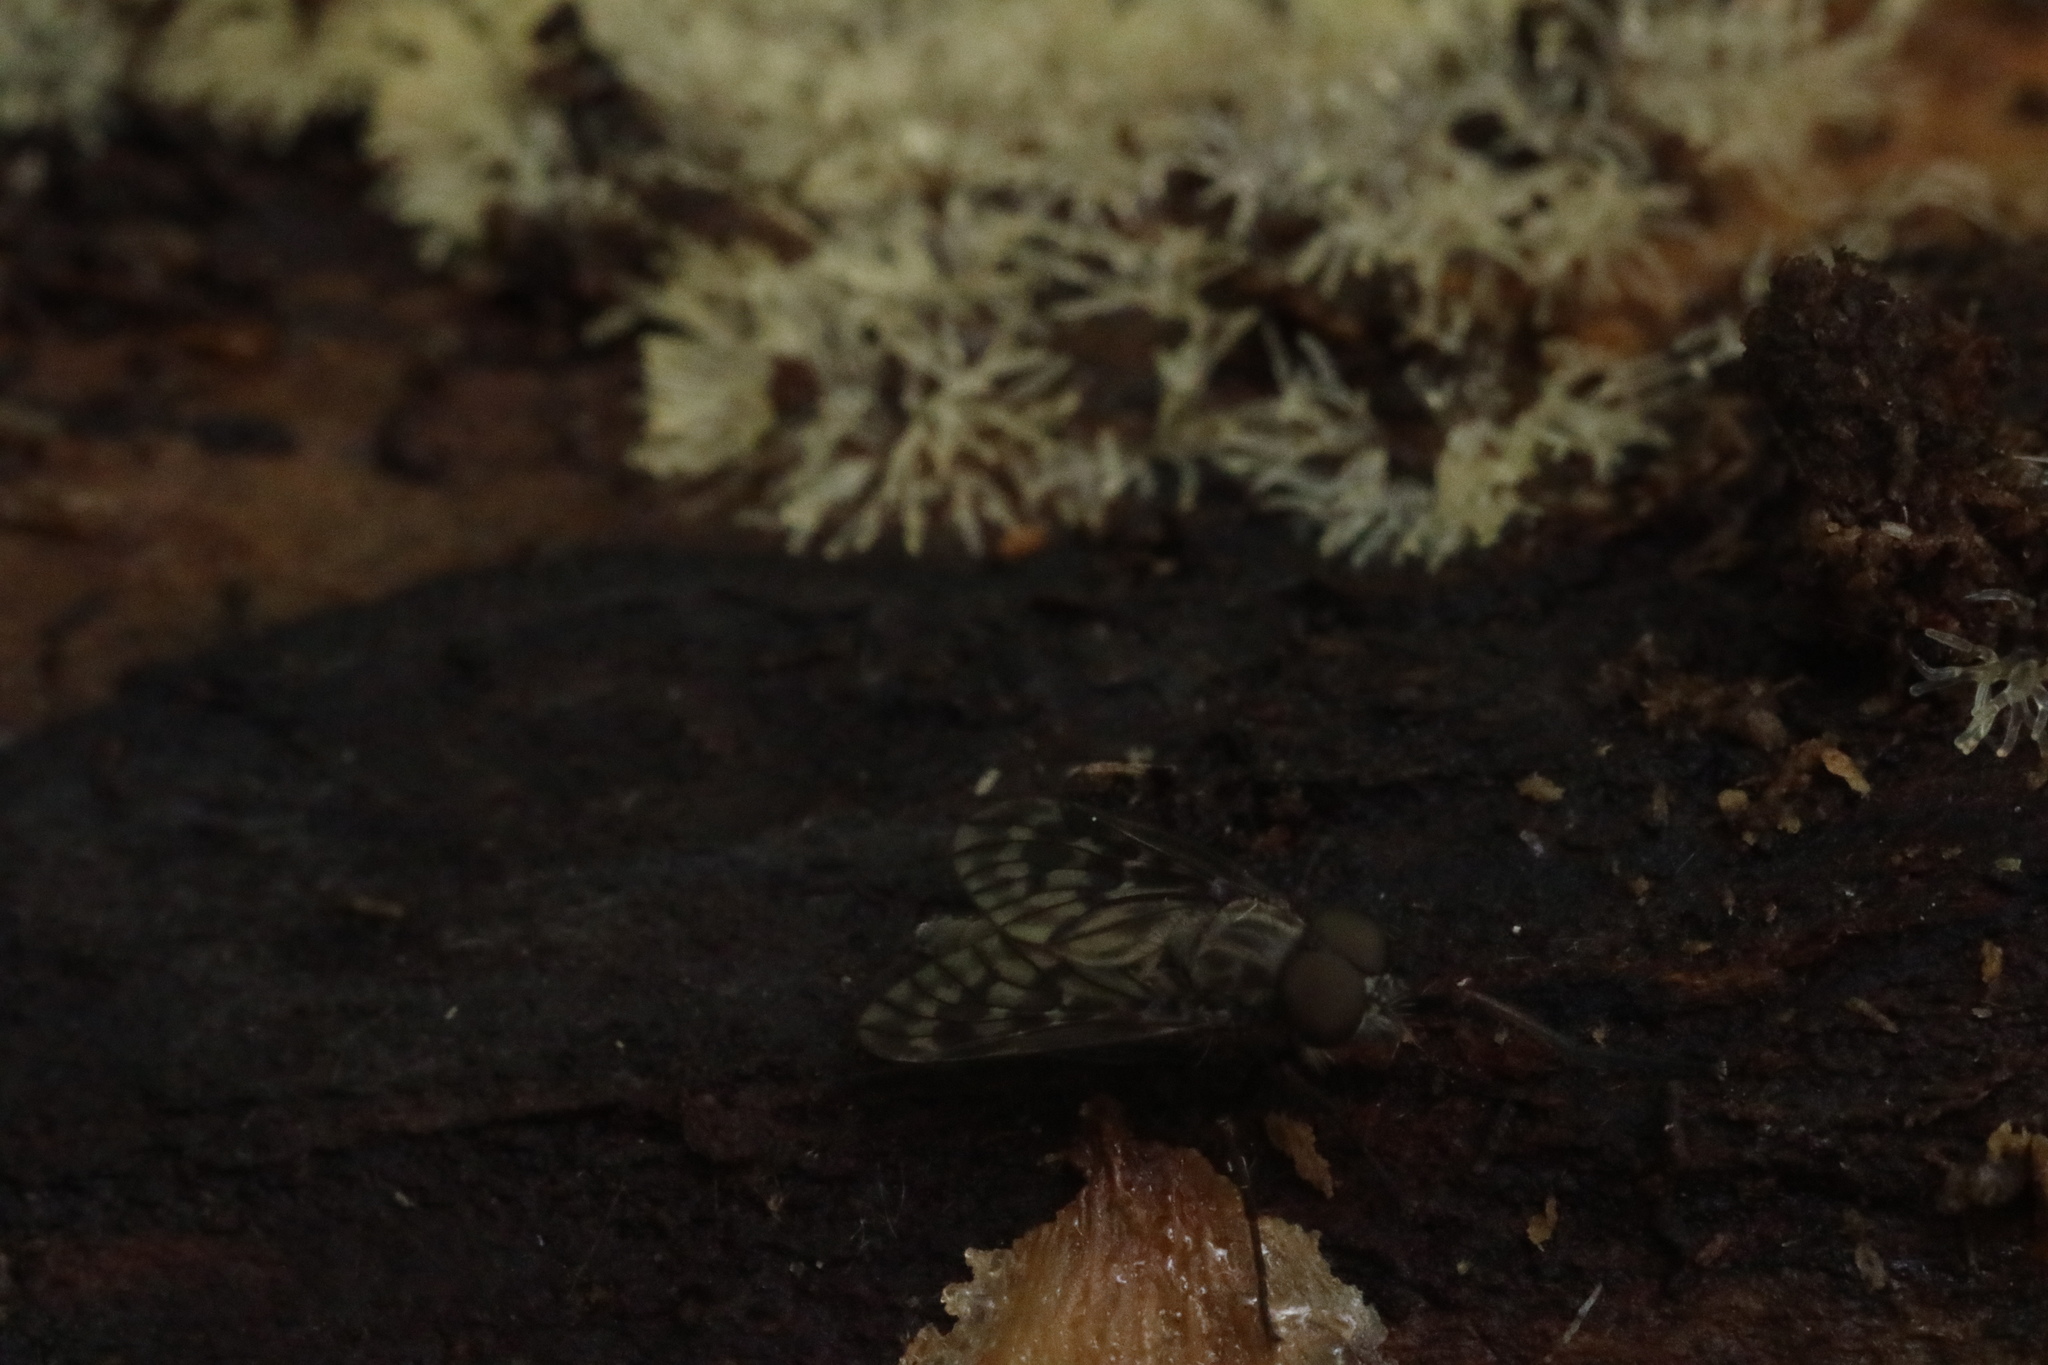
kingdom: Animalia
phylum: Arthropoda
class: Insecta
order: Diptera
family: Rhagionidae
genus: Rhagio
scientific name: Rhagio mystaceus
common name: Common snipe fly
